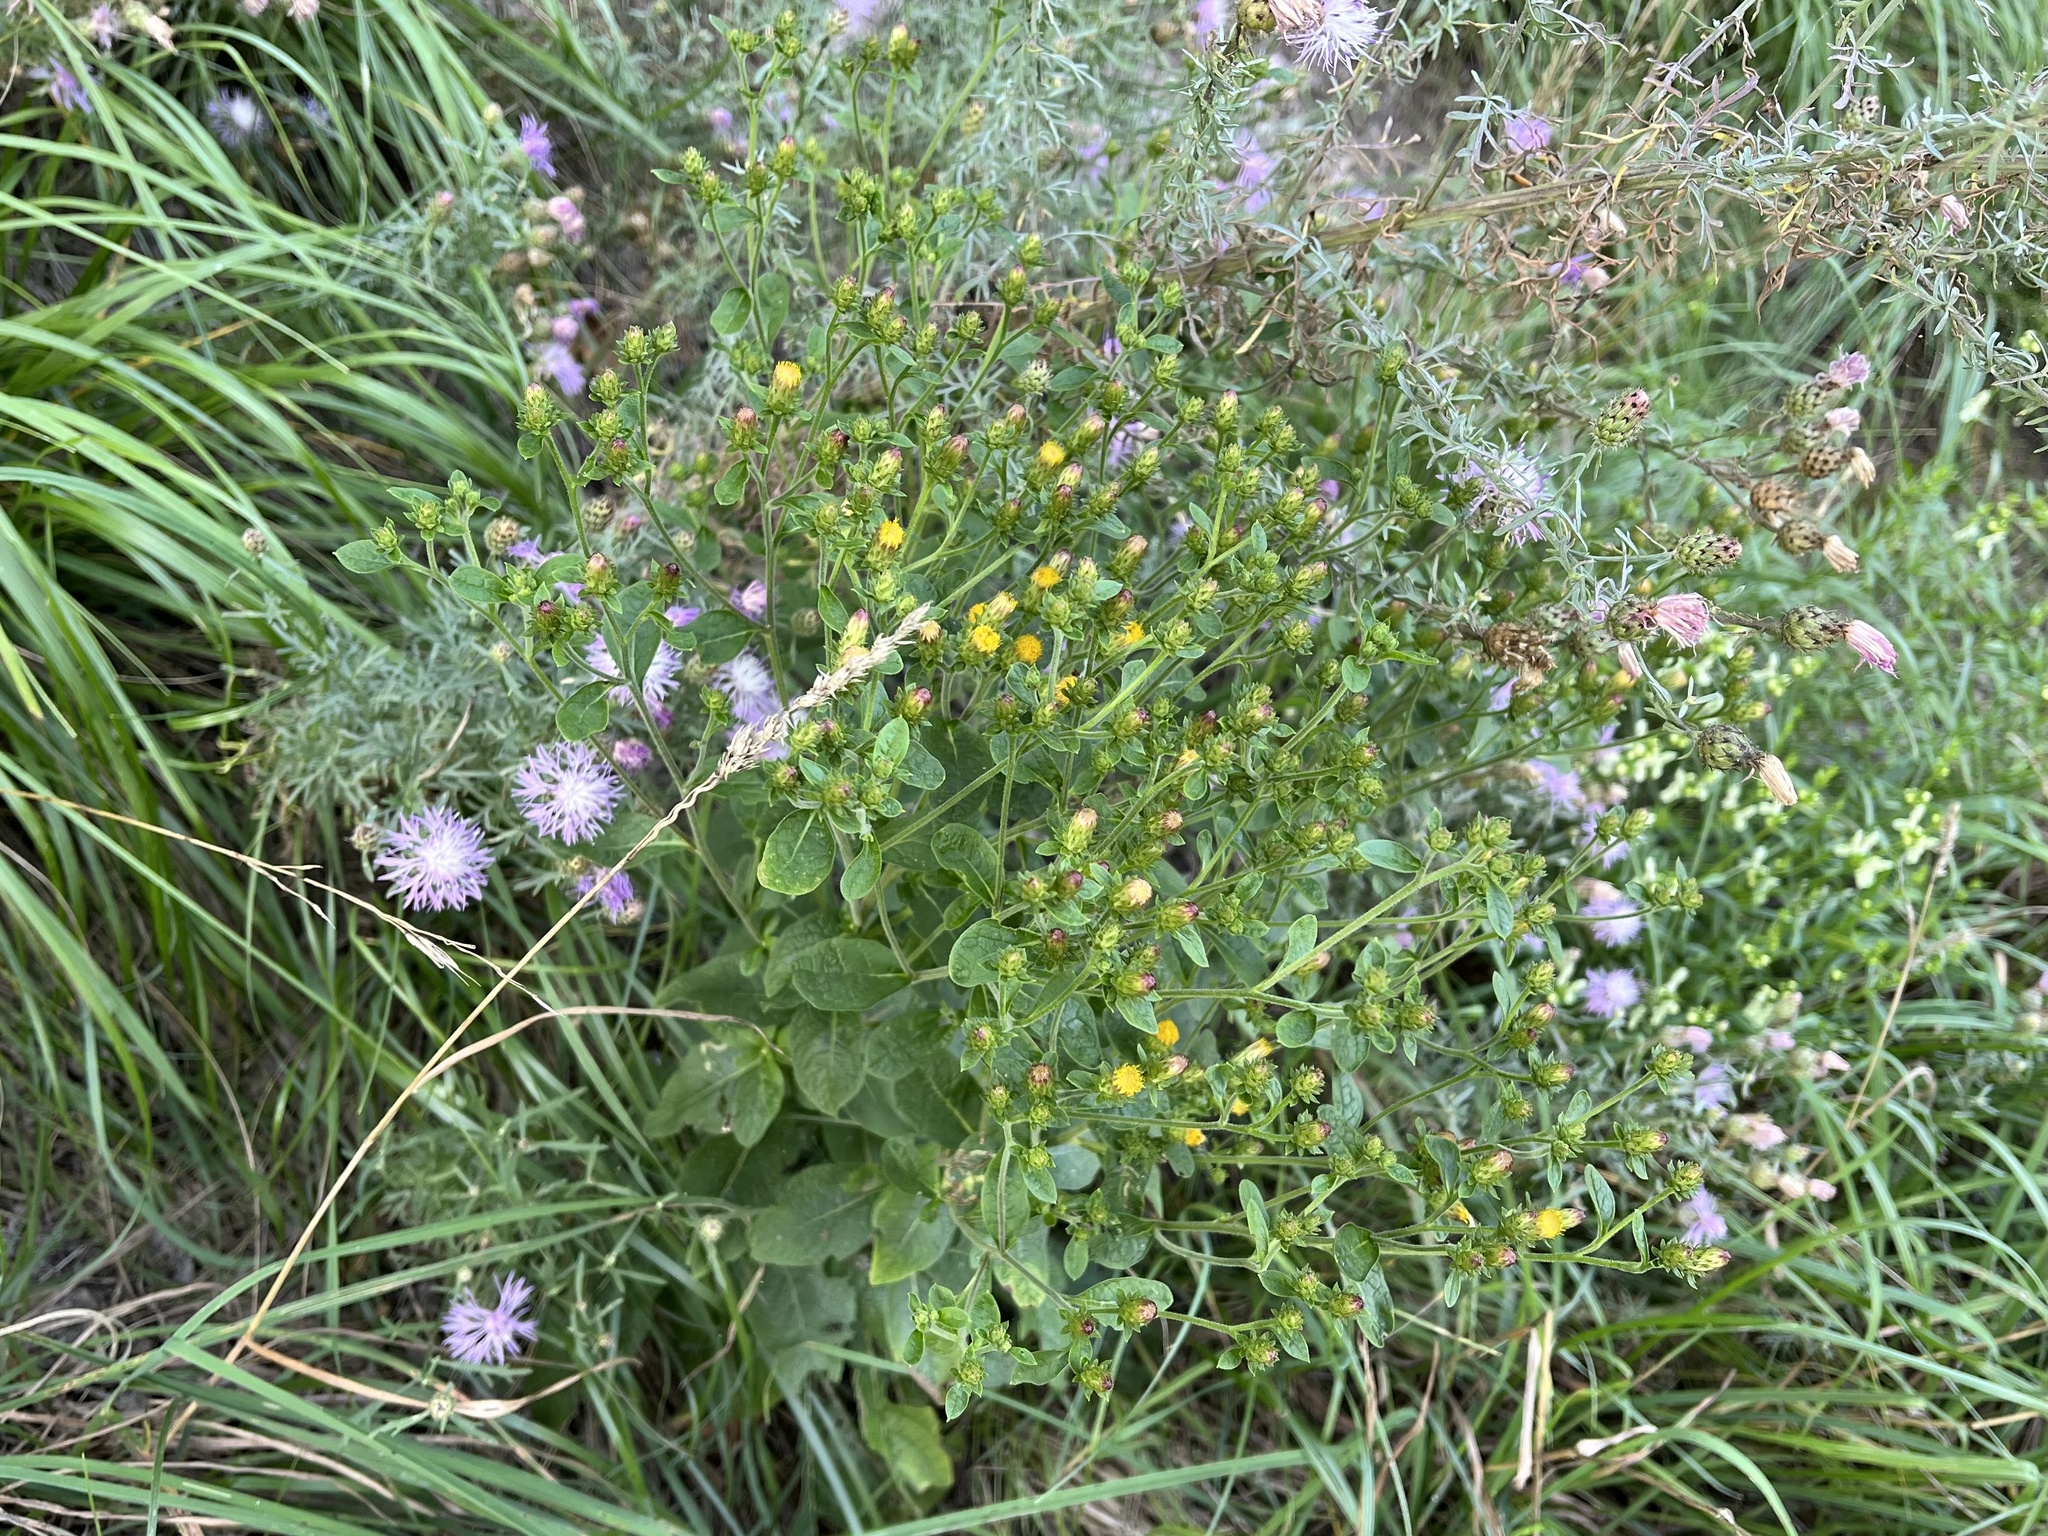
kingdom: Plantae
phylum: Tracheophyta
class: Magnoliopsida
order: Asterales
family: Asteraceae
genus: Pentanema
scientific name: Pentanema squarrosum
